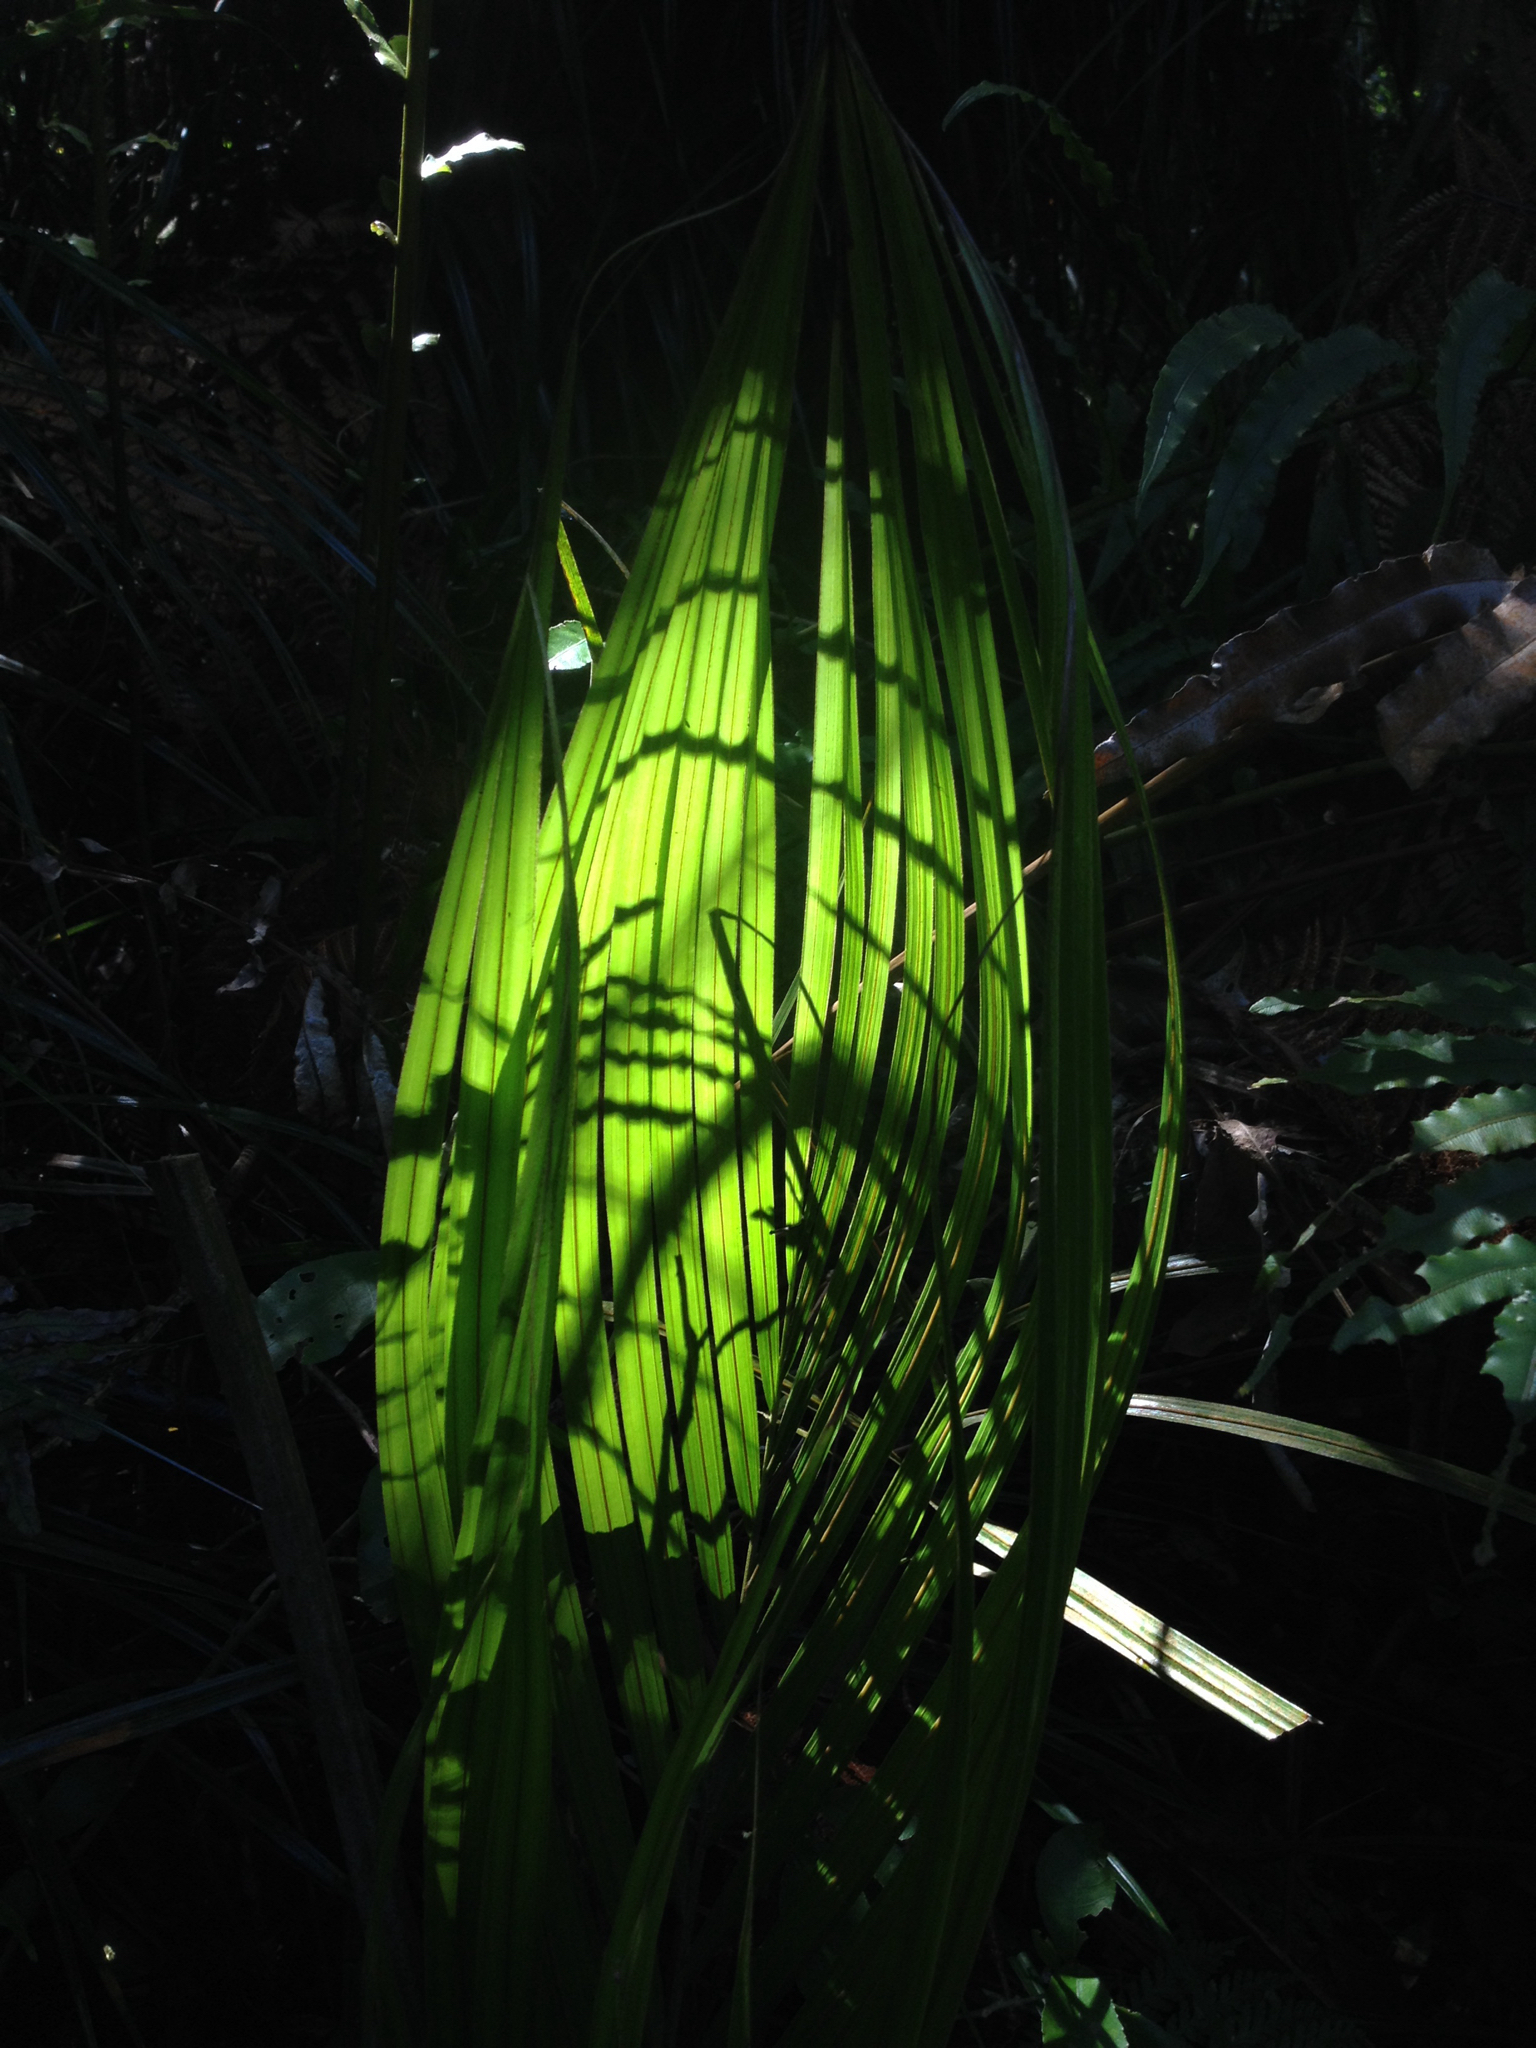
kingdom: Plantae
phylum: Tracheophyta
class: Liliopsida
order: Arecales
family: Arecaceae
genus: Rhopalostylis
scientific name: Rhopalostylis sapida
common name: Feather-duster palm
